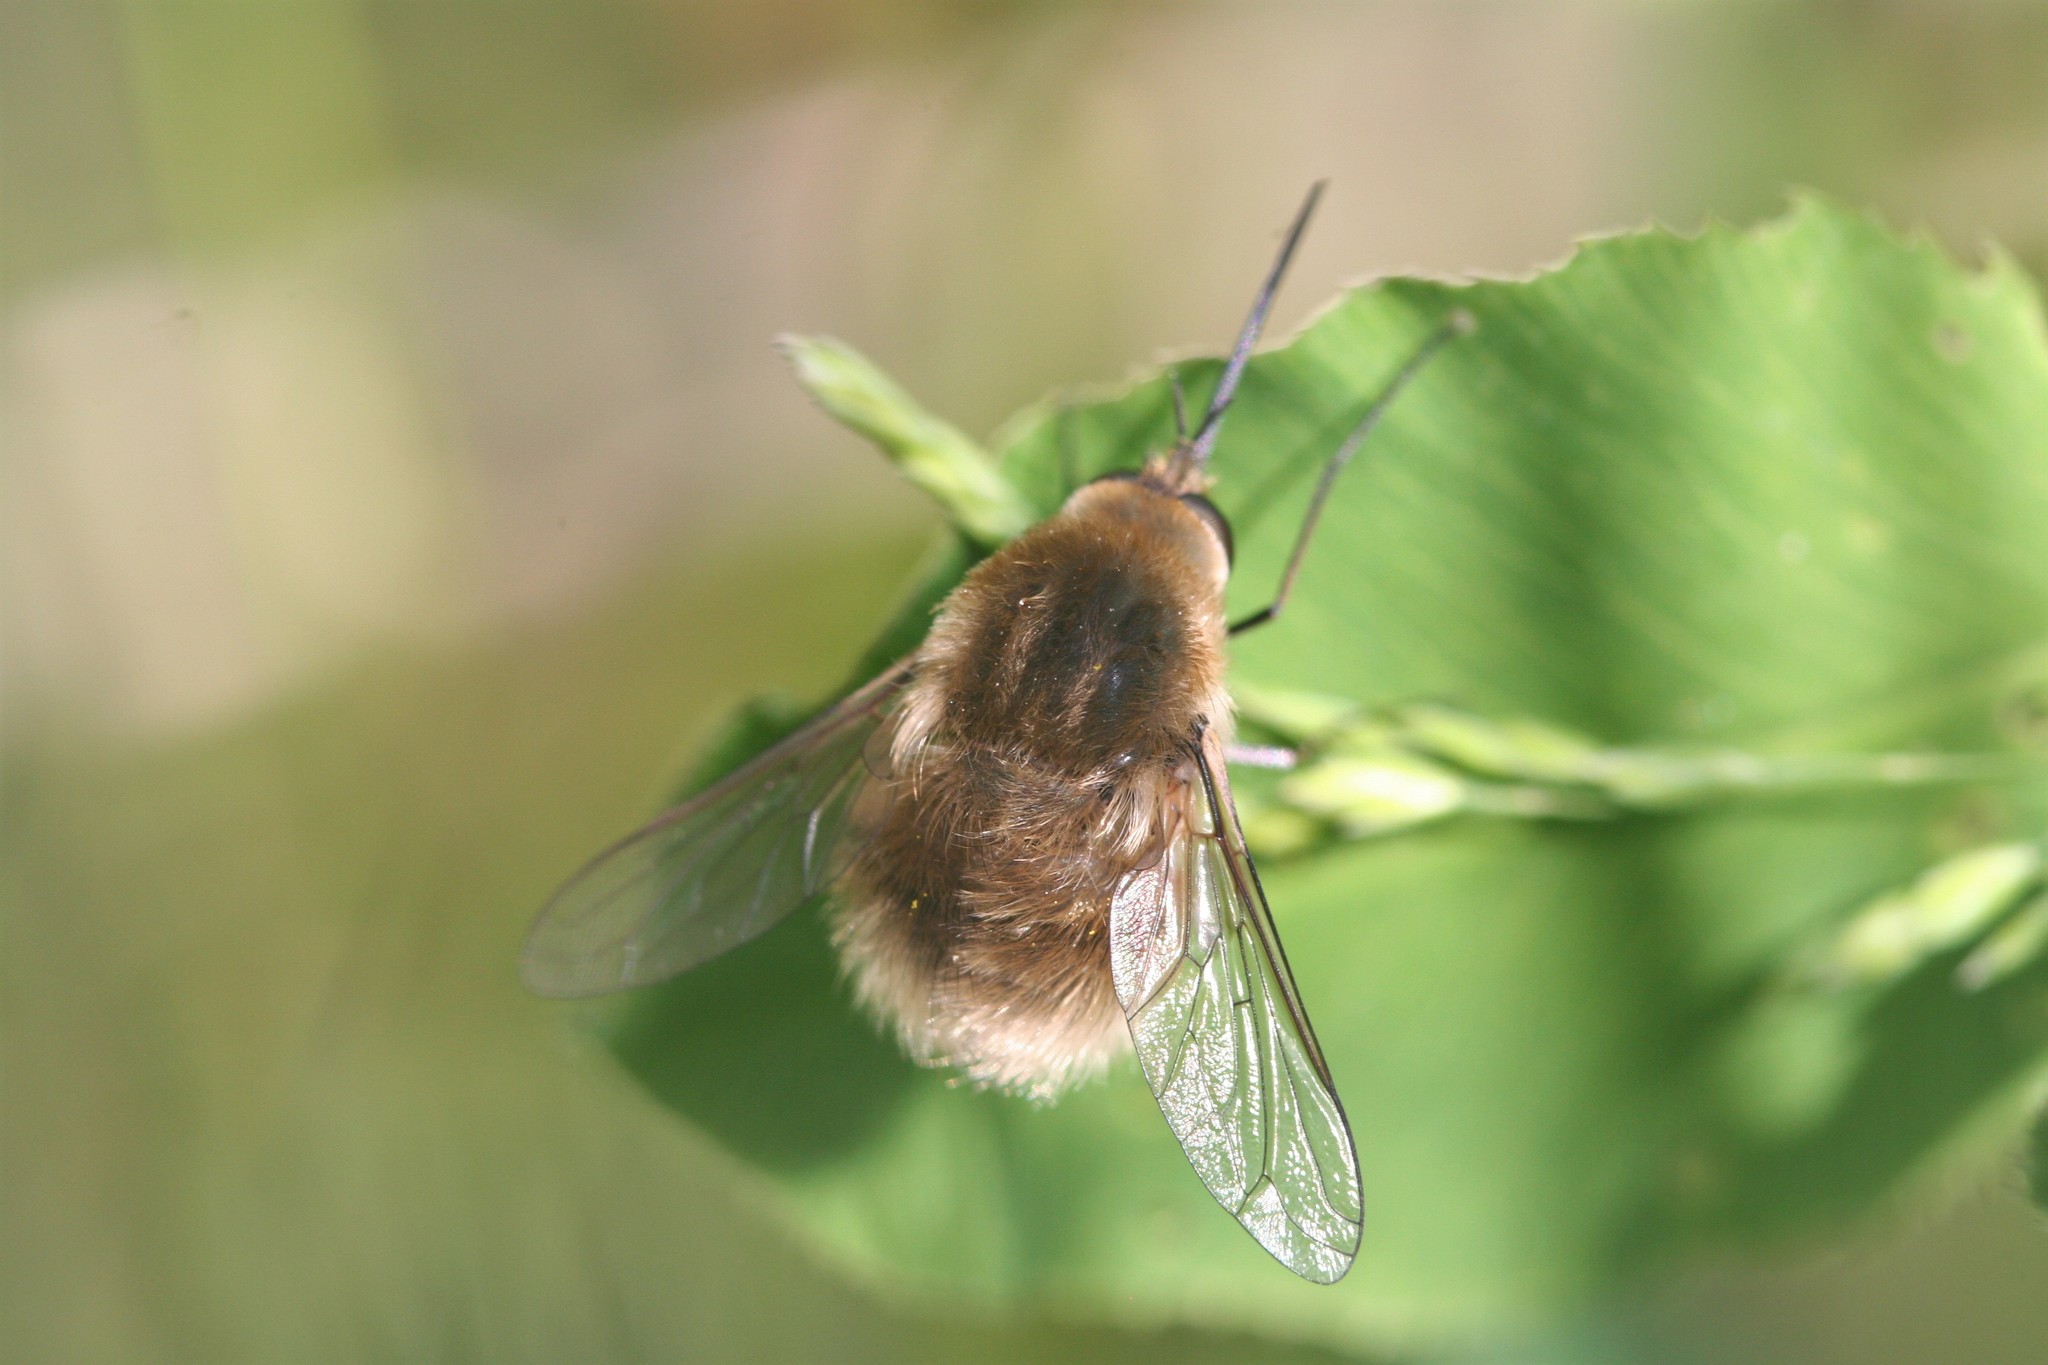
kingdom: Animalia
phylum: Arthropoda
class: Insecta
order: Diptera
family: Bombyliidae
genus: Bombylius
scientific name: Bombylius posticus
